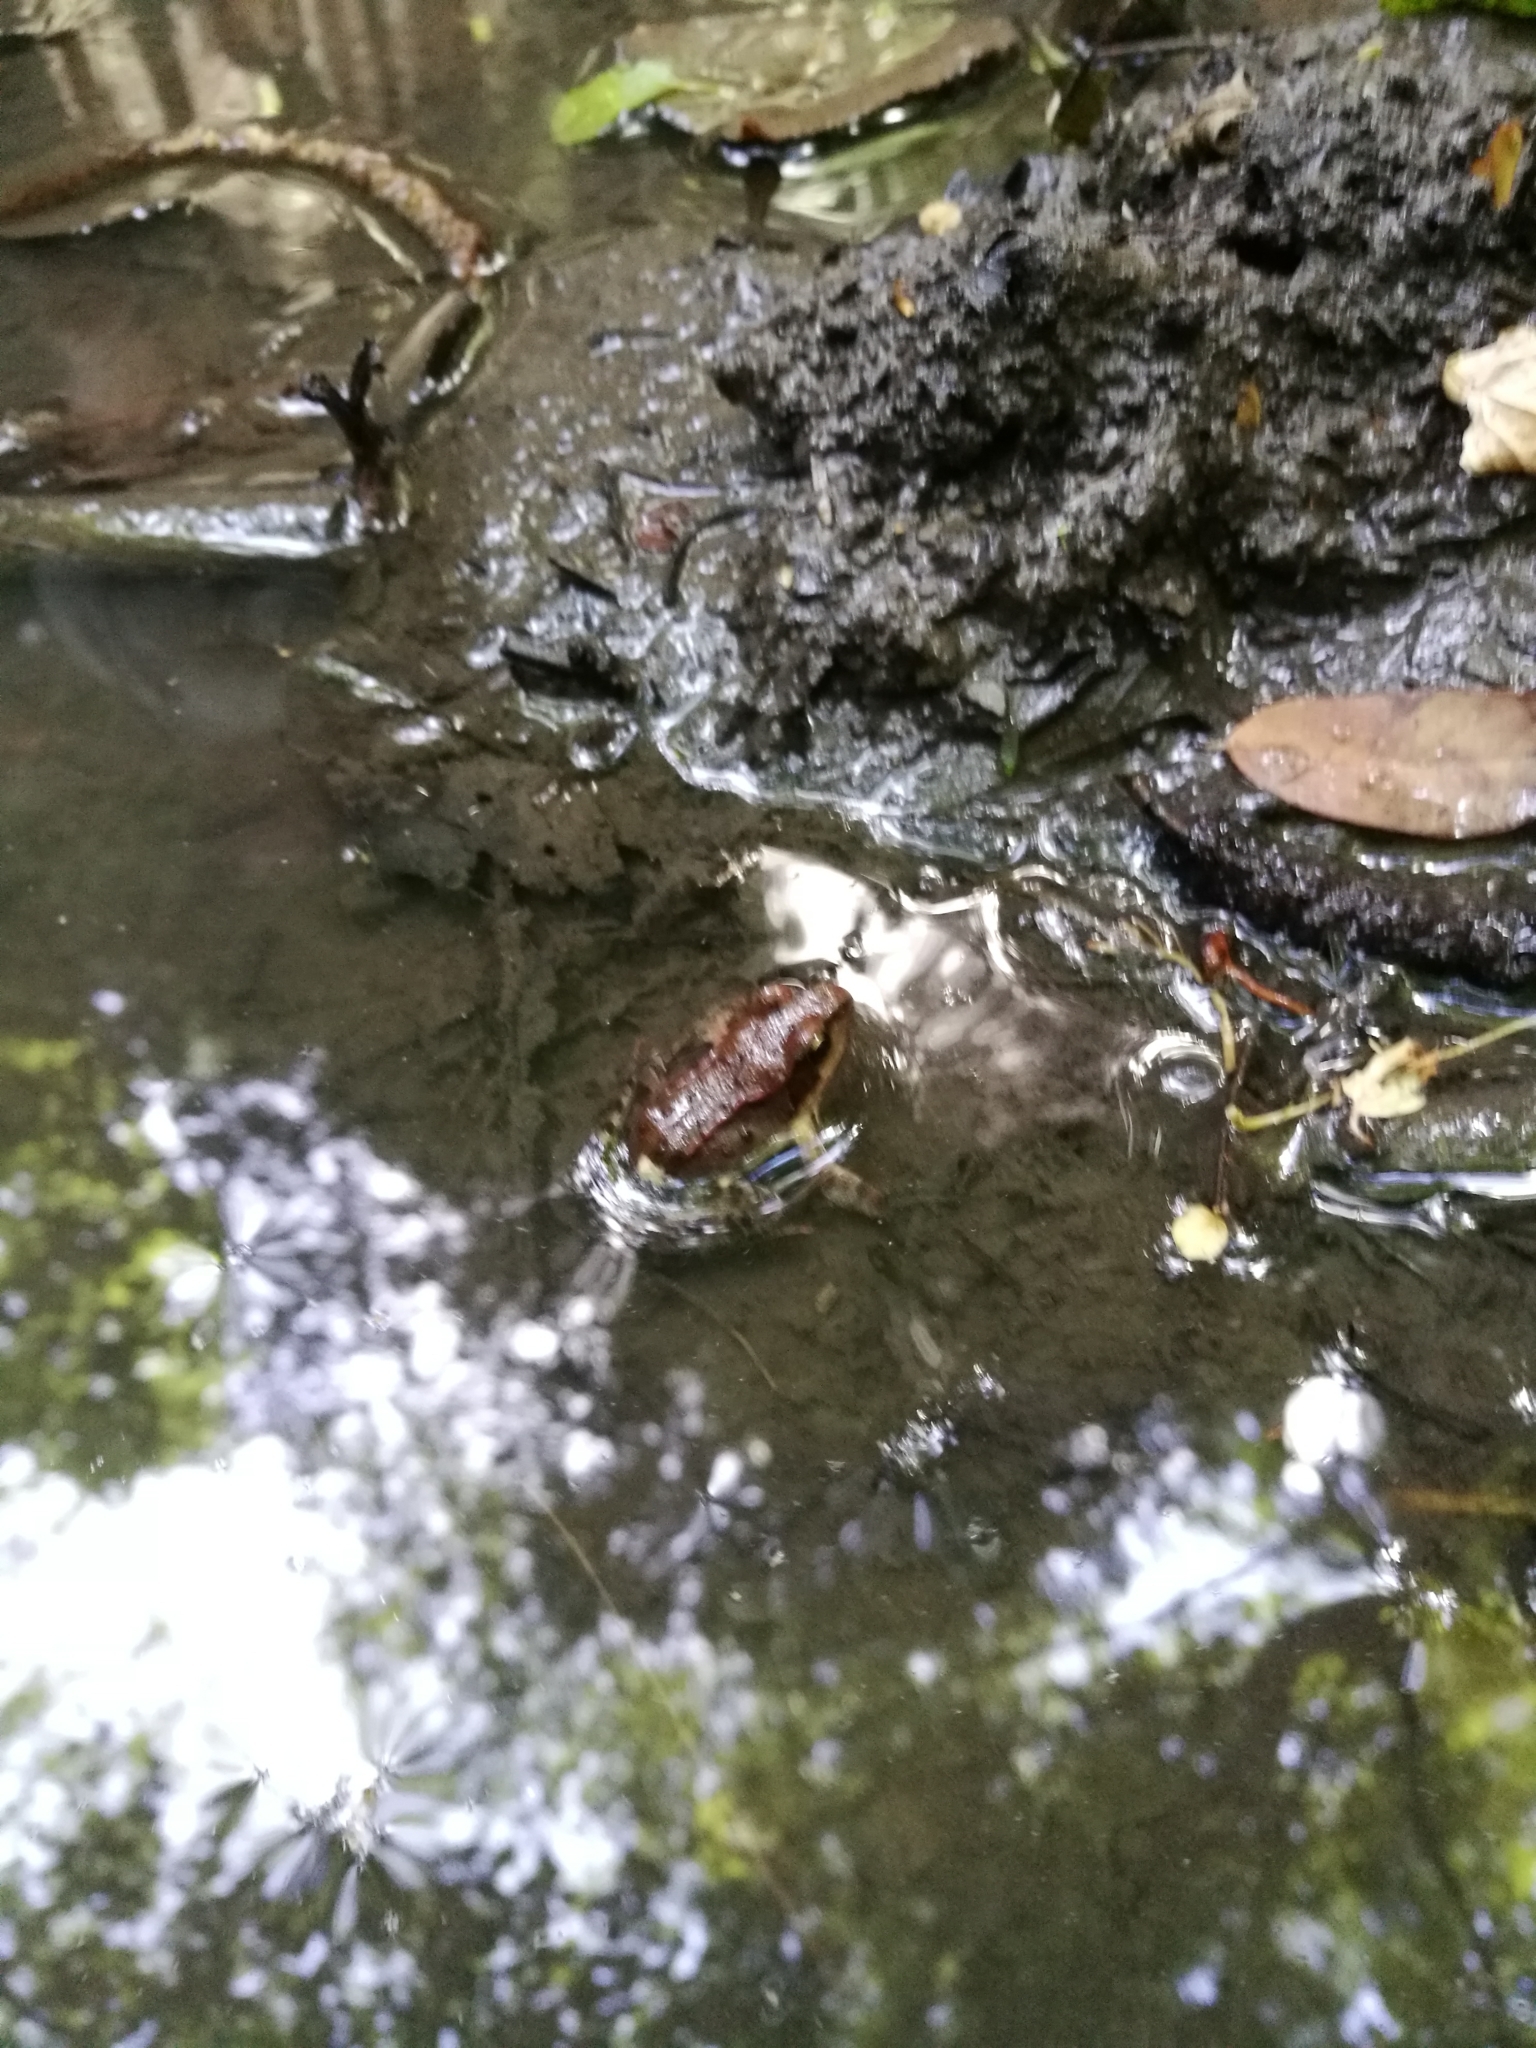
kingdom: Animalia
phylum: Chordata
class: Amphibia
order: Anura
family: Ranidae
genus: Rana
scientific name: Rana temporaria
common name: Common frog
